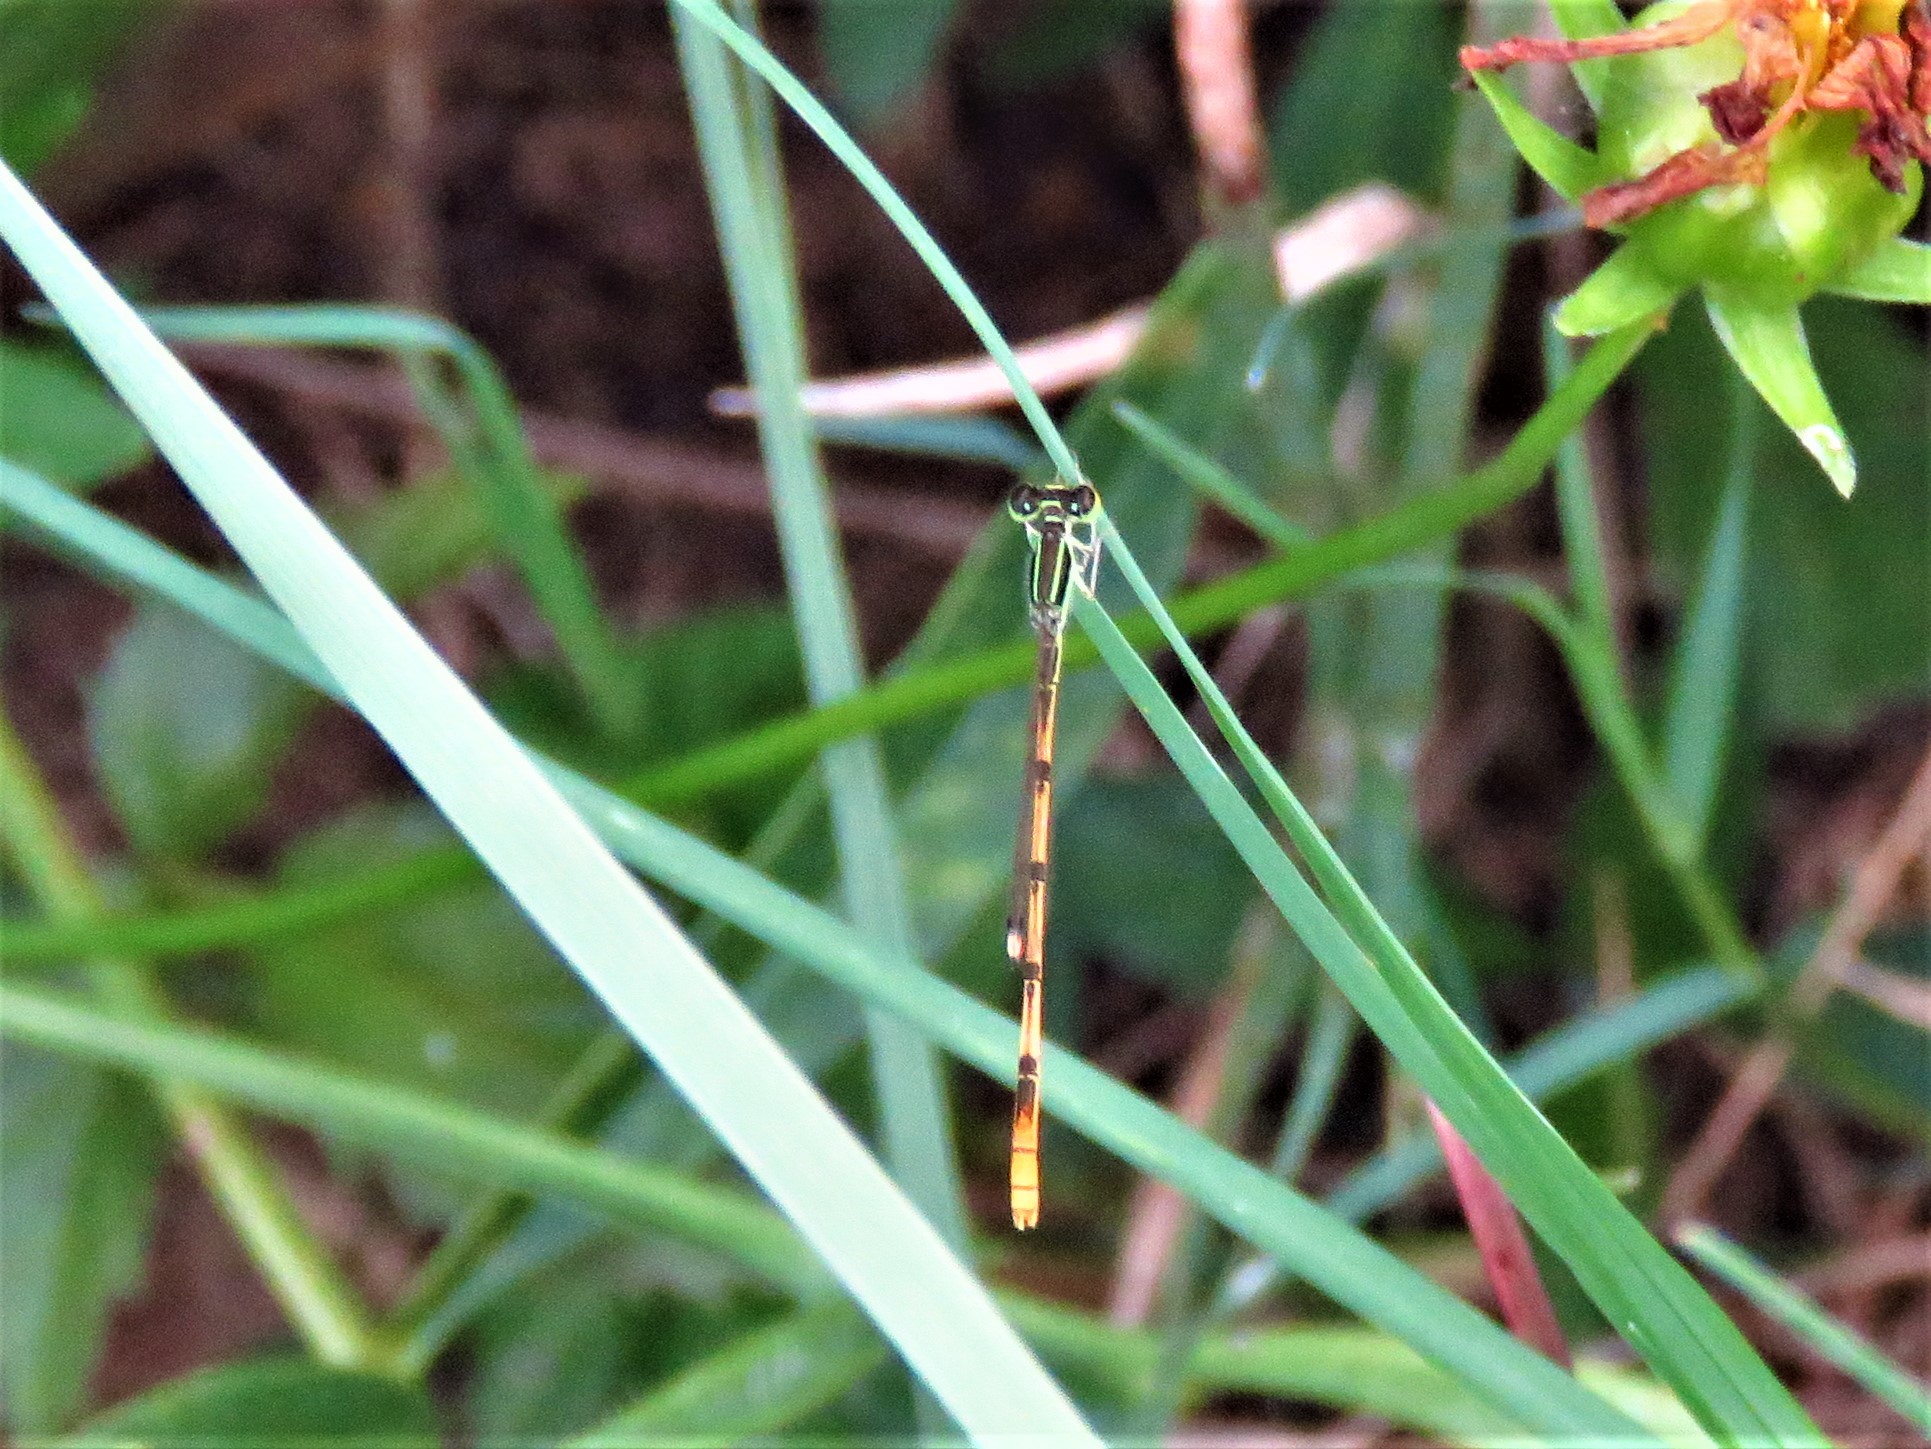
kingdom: Animalia
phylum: Arthropoda
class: Insecta
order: Odonata
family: Coenagrionidae
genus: Ischnura
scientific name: Ischnura hastata
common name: Citrine forktail
